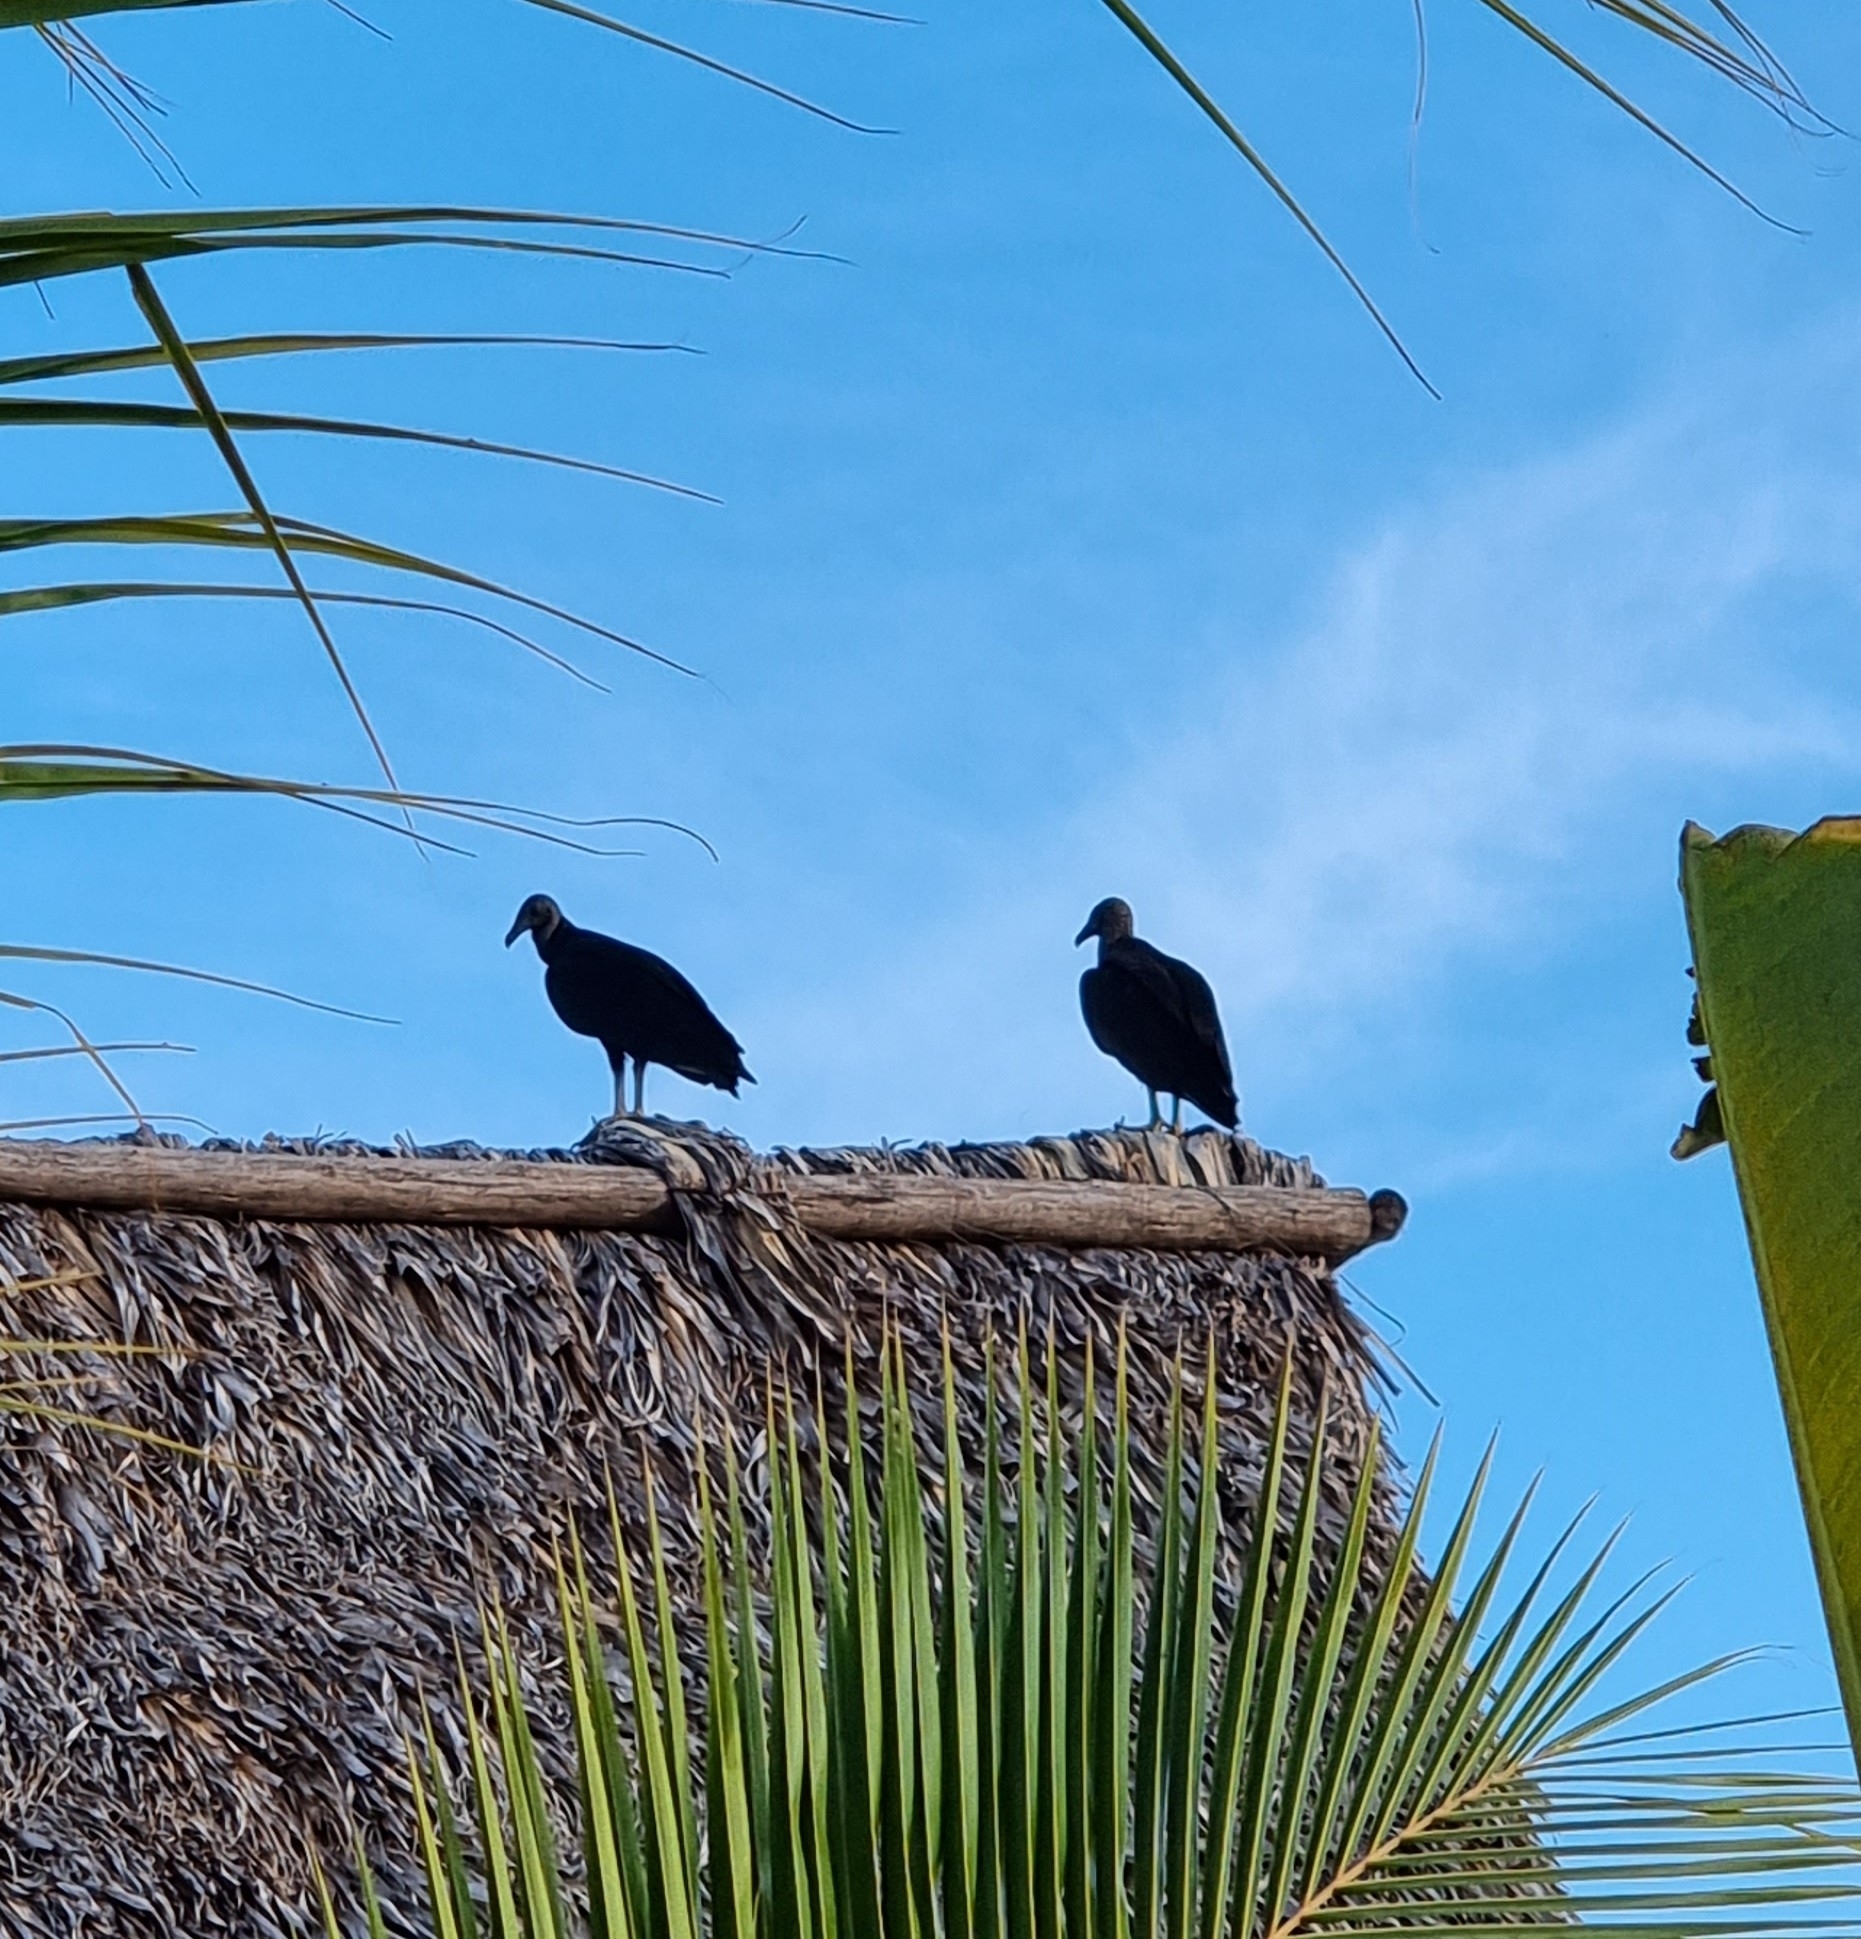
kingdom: Animalia
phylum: Chordata
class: Aves
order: Accipitriformes
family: Cathartidae
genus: Coragyps
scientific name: Coragyps atratus
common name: Black vulture
